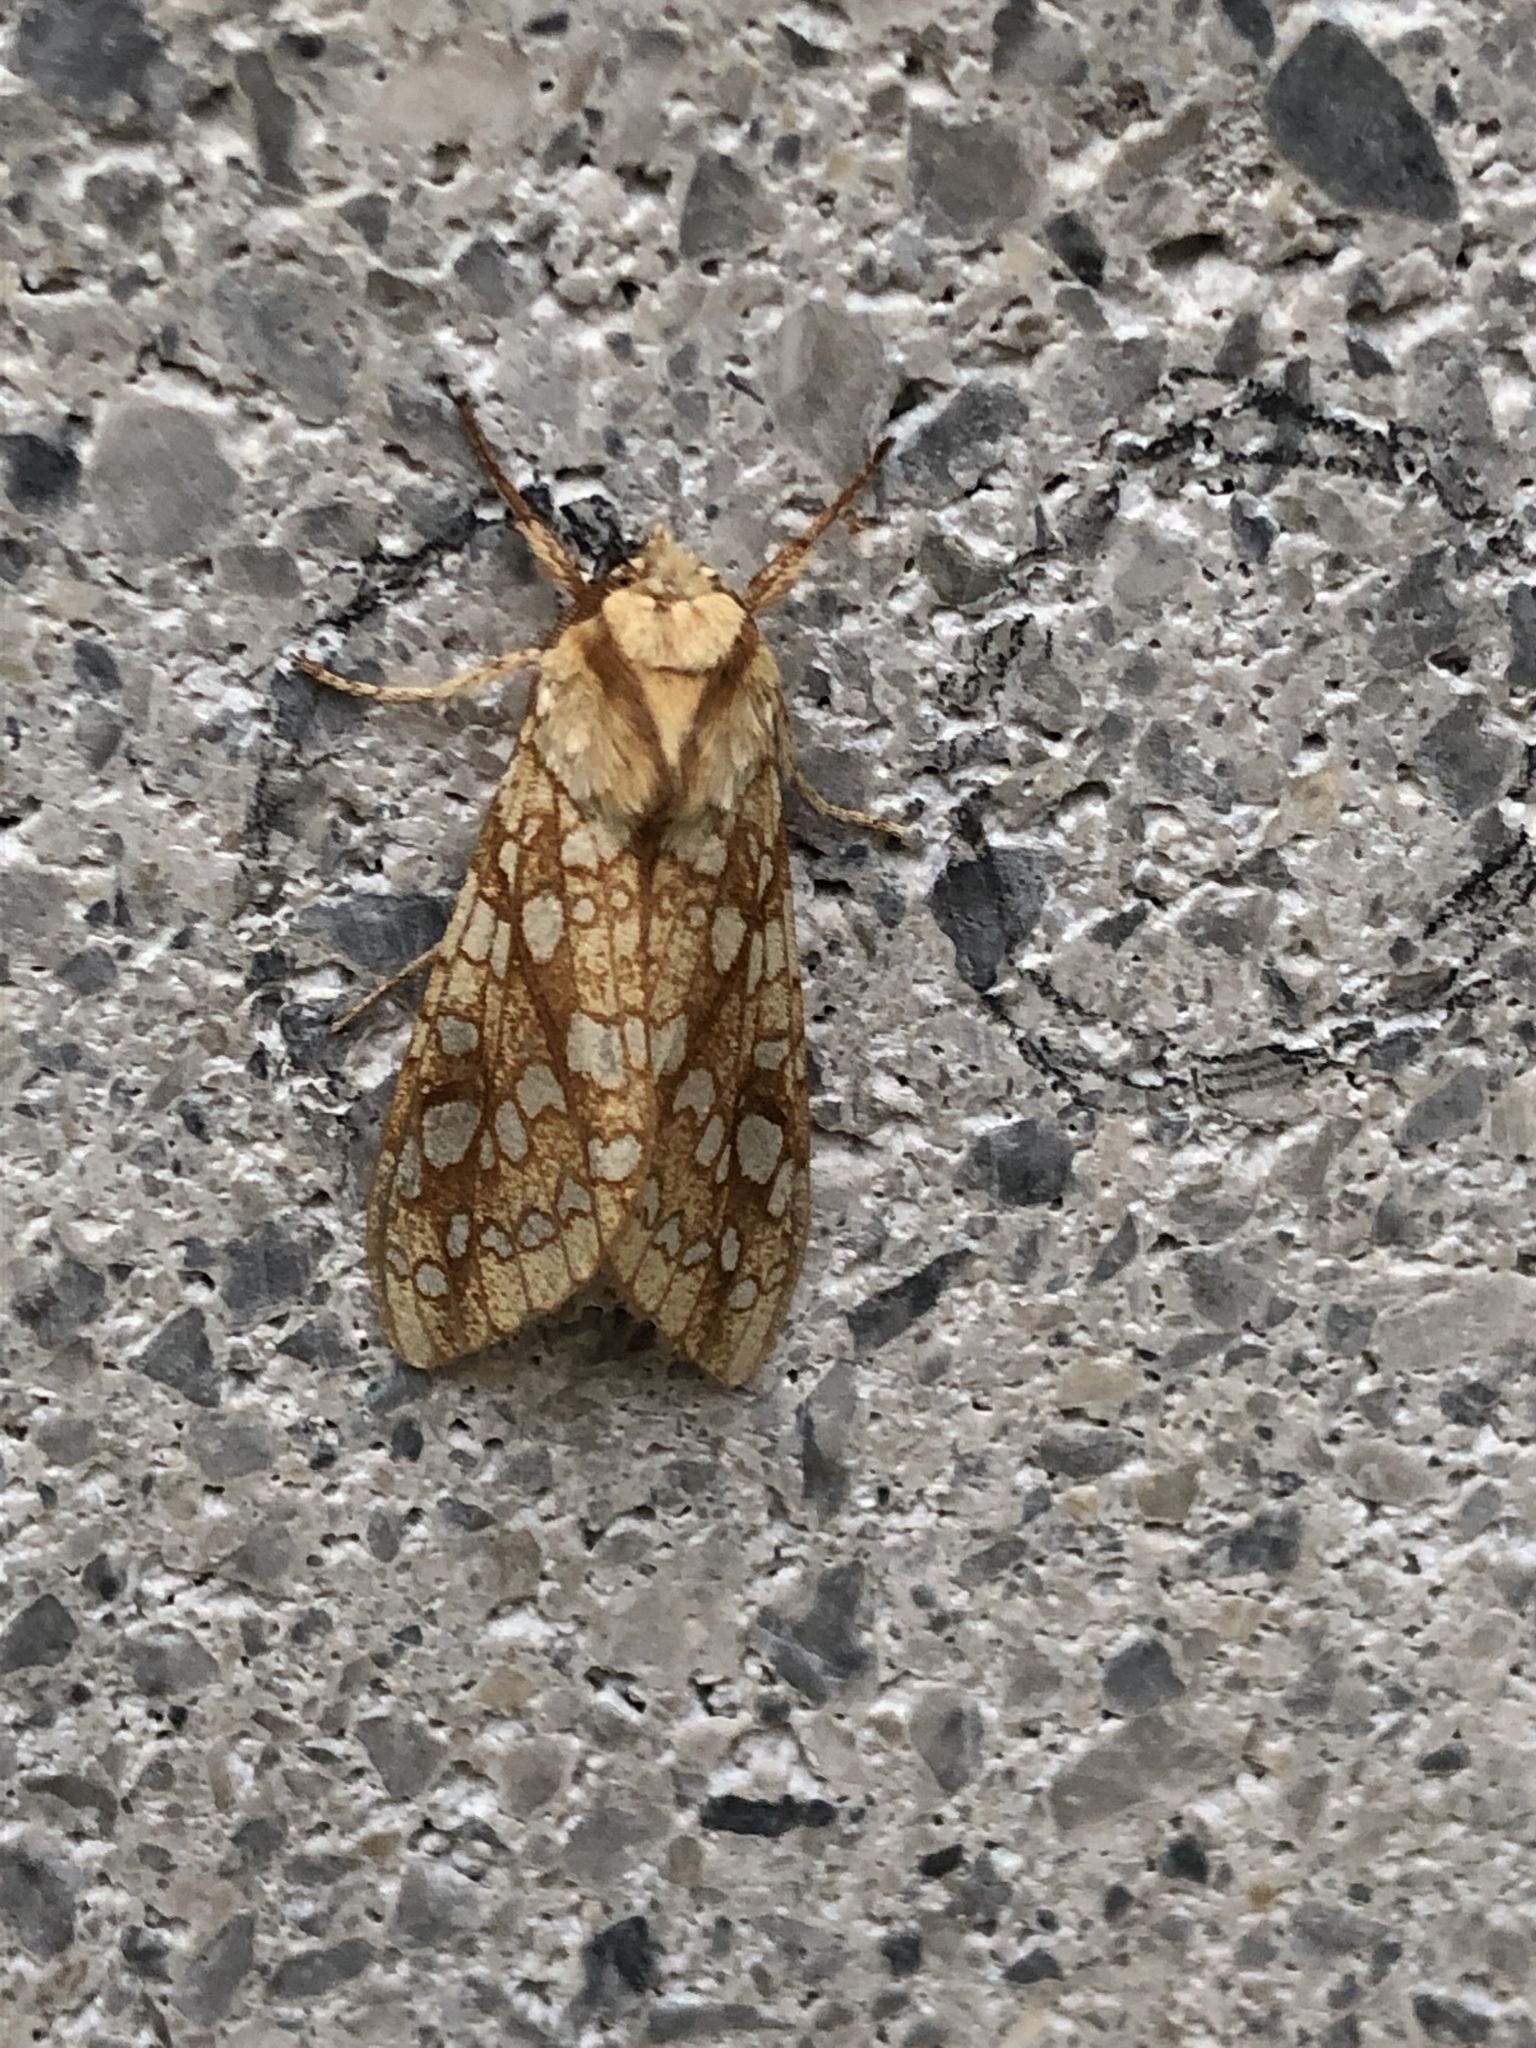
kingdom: Animalia
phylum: Arthropoda
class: Insecta
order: Lepidoptera
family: Erebidae
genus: Lophocampa
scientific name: Lophocampa caryae
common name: Hickory tussock moth
